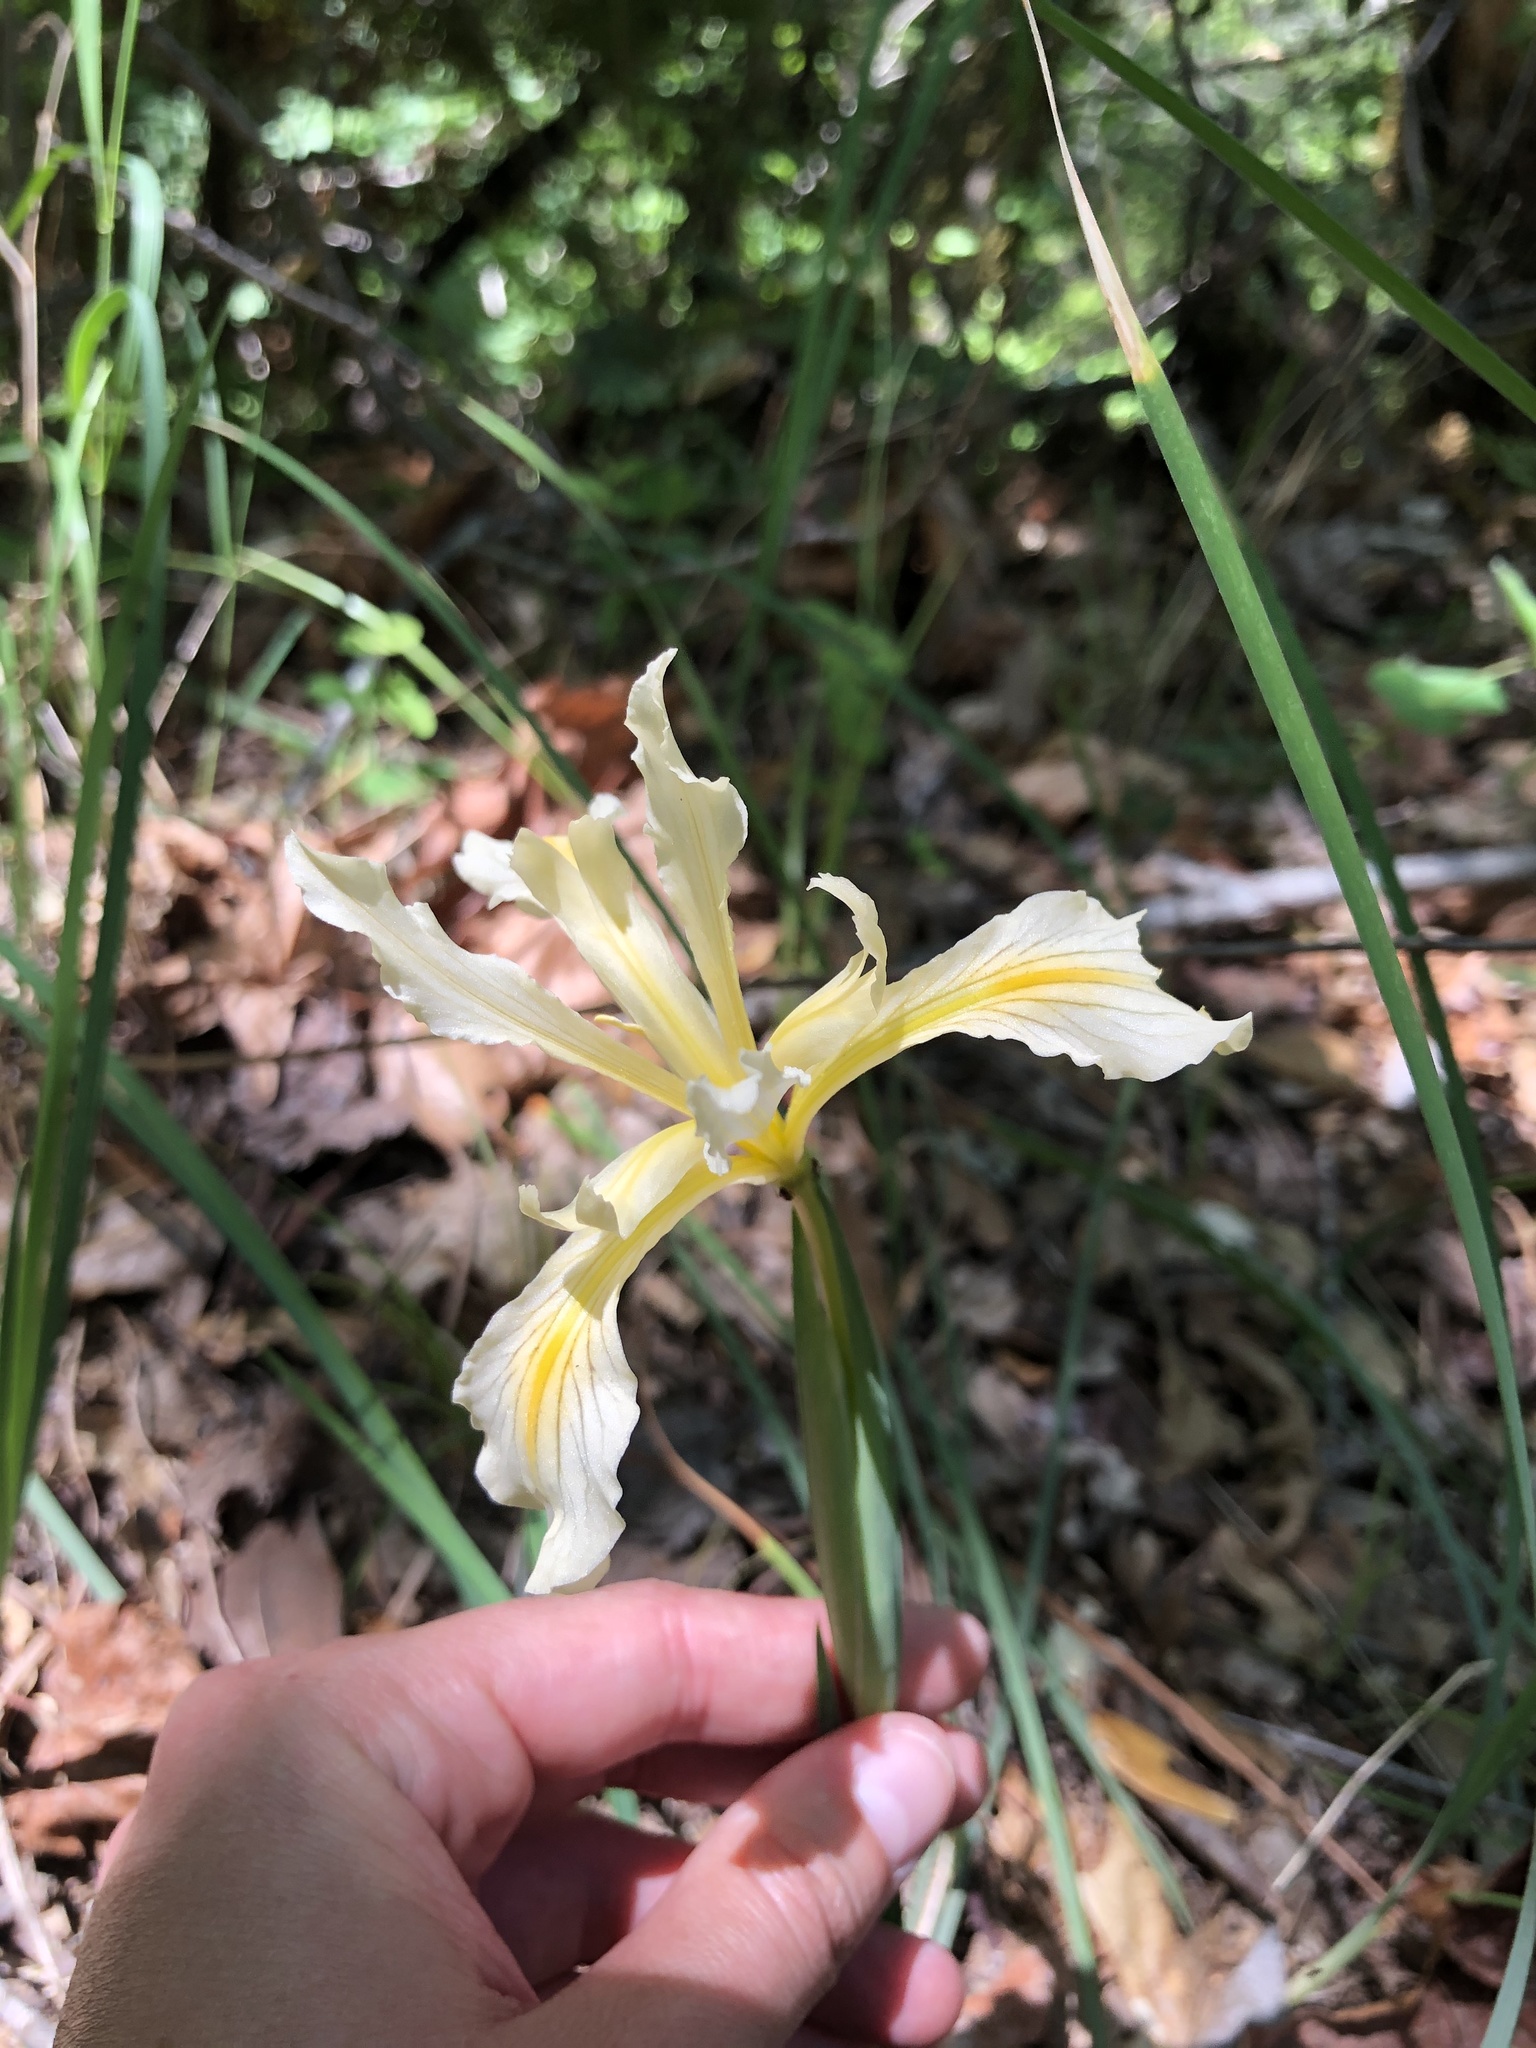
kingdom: Plantae
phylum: Tracheophyta
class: Liliopsida
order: Asparagales
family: Iridaceae
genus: Iris
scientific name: Iris macrosiphon
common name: Ground iris
